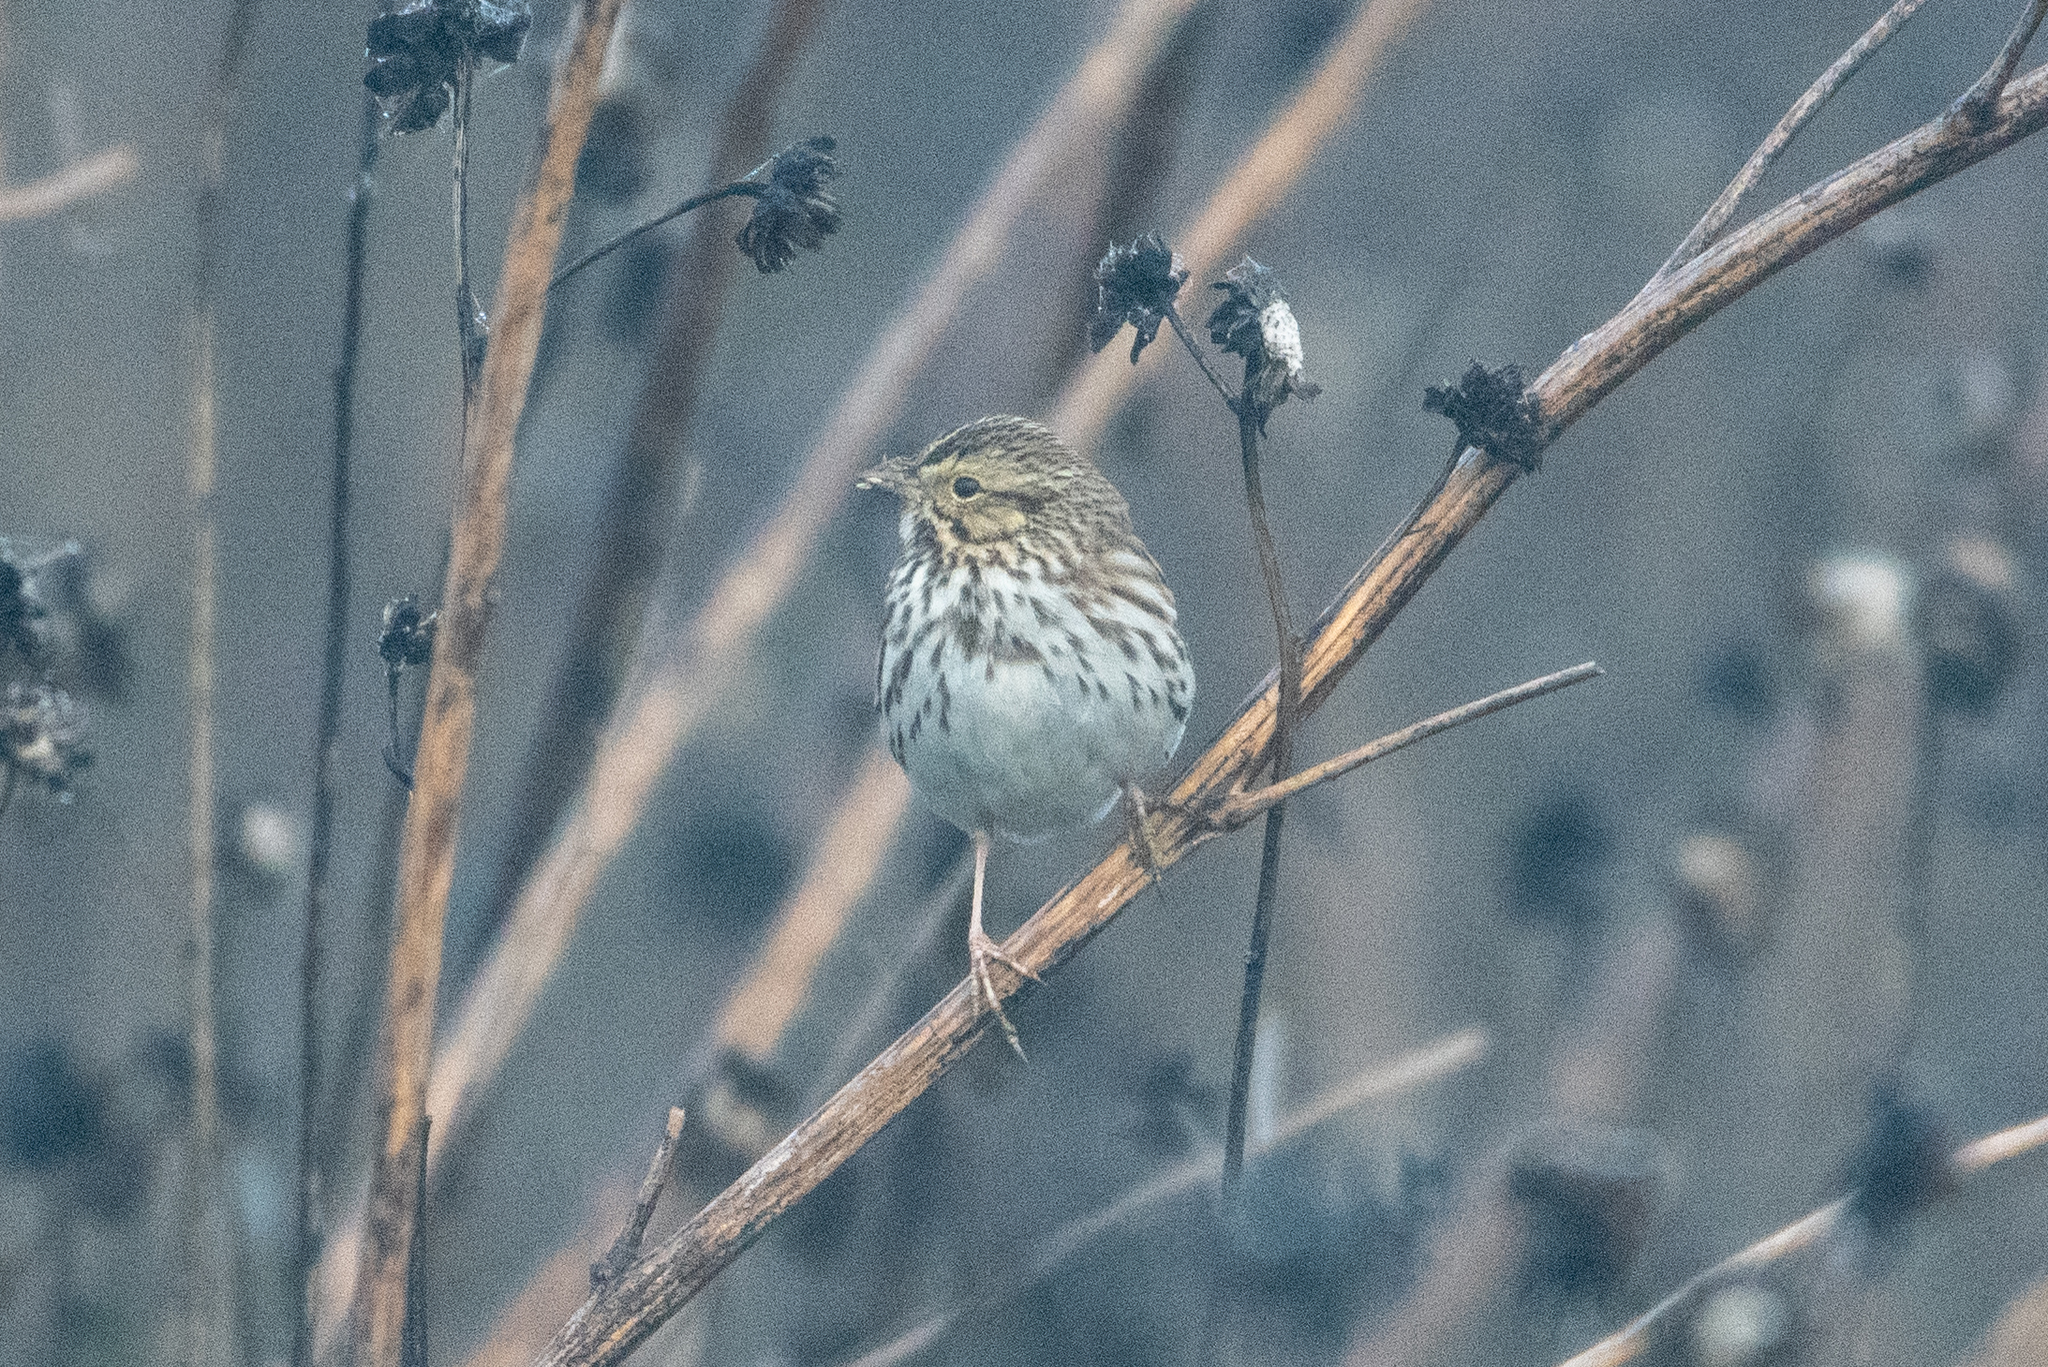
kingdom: Animalia
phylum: Chordata
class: Aves
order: Passeriformes
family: Passerellidae
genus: Passerculus
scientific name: Passerculus sandwichensis
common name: Savannah sparrow
